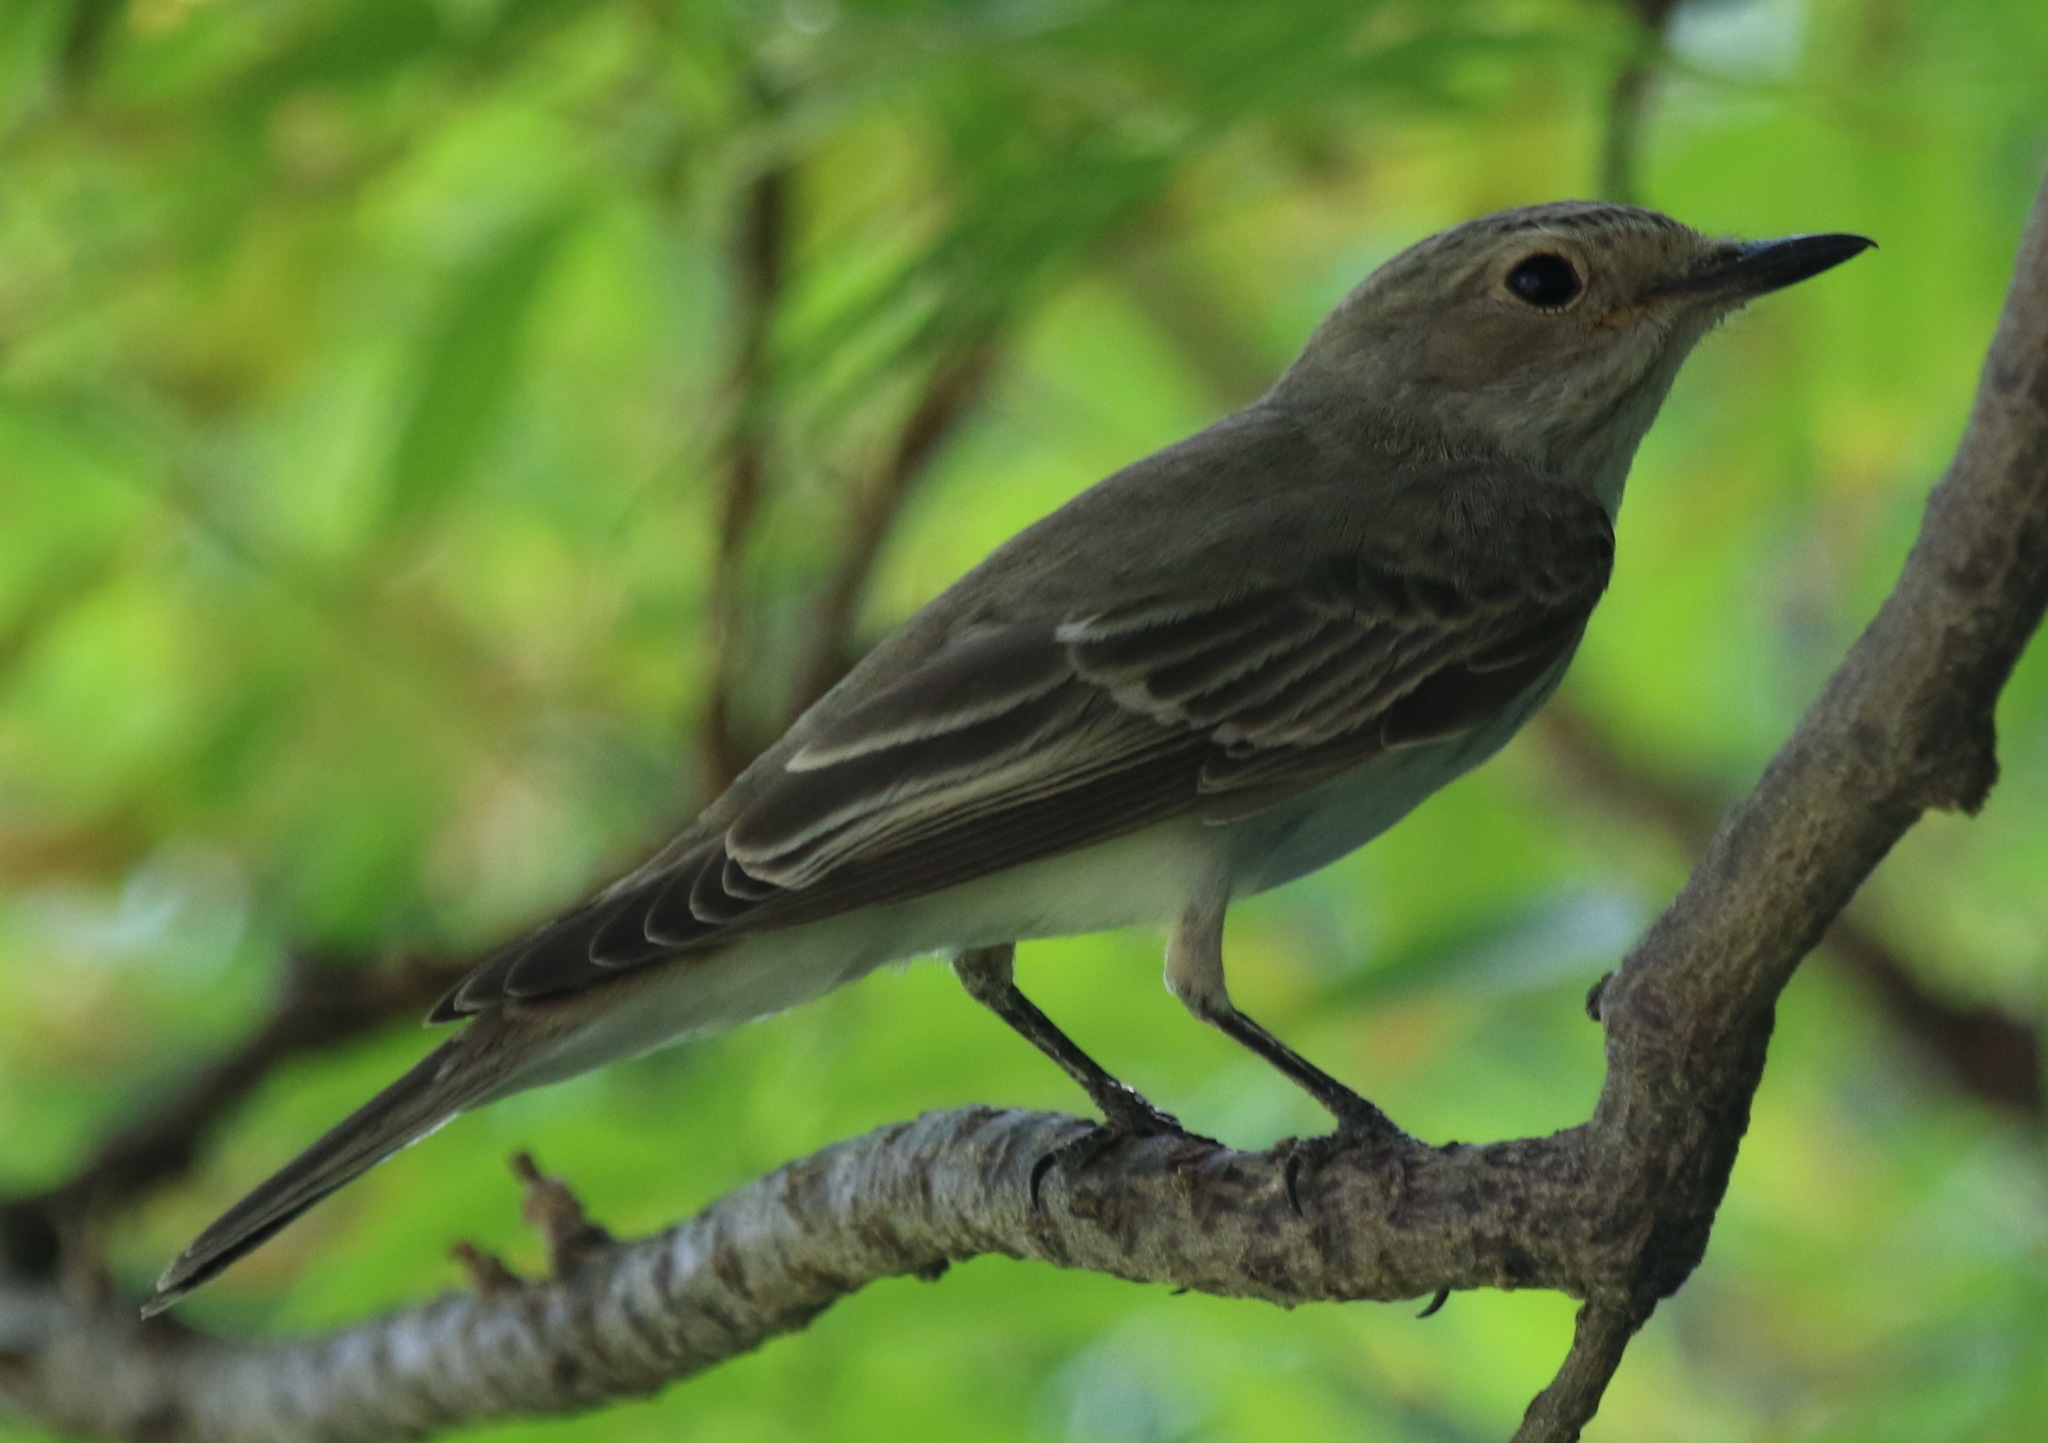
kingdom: Animalia
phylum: Chordata
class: Aves
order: Passeriformes
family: Muscicapidae
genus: Muscicapa
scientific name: Muscicapa striata
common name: Spotted flycatcher
